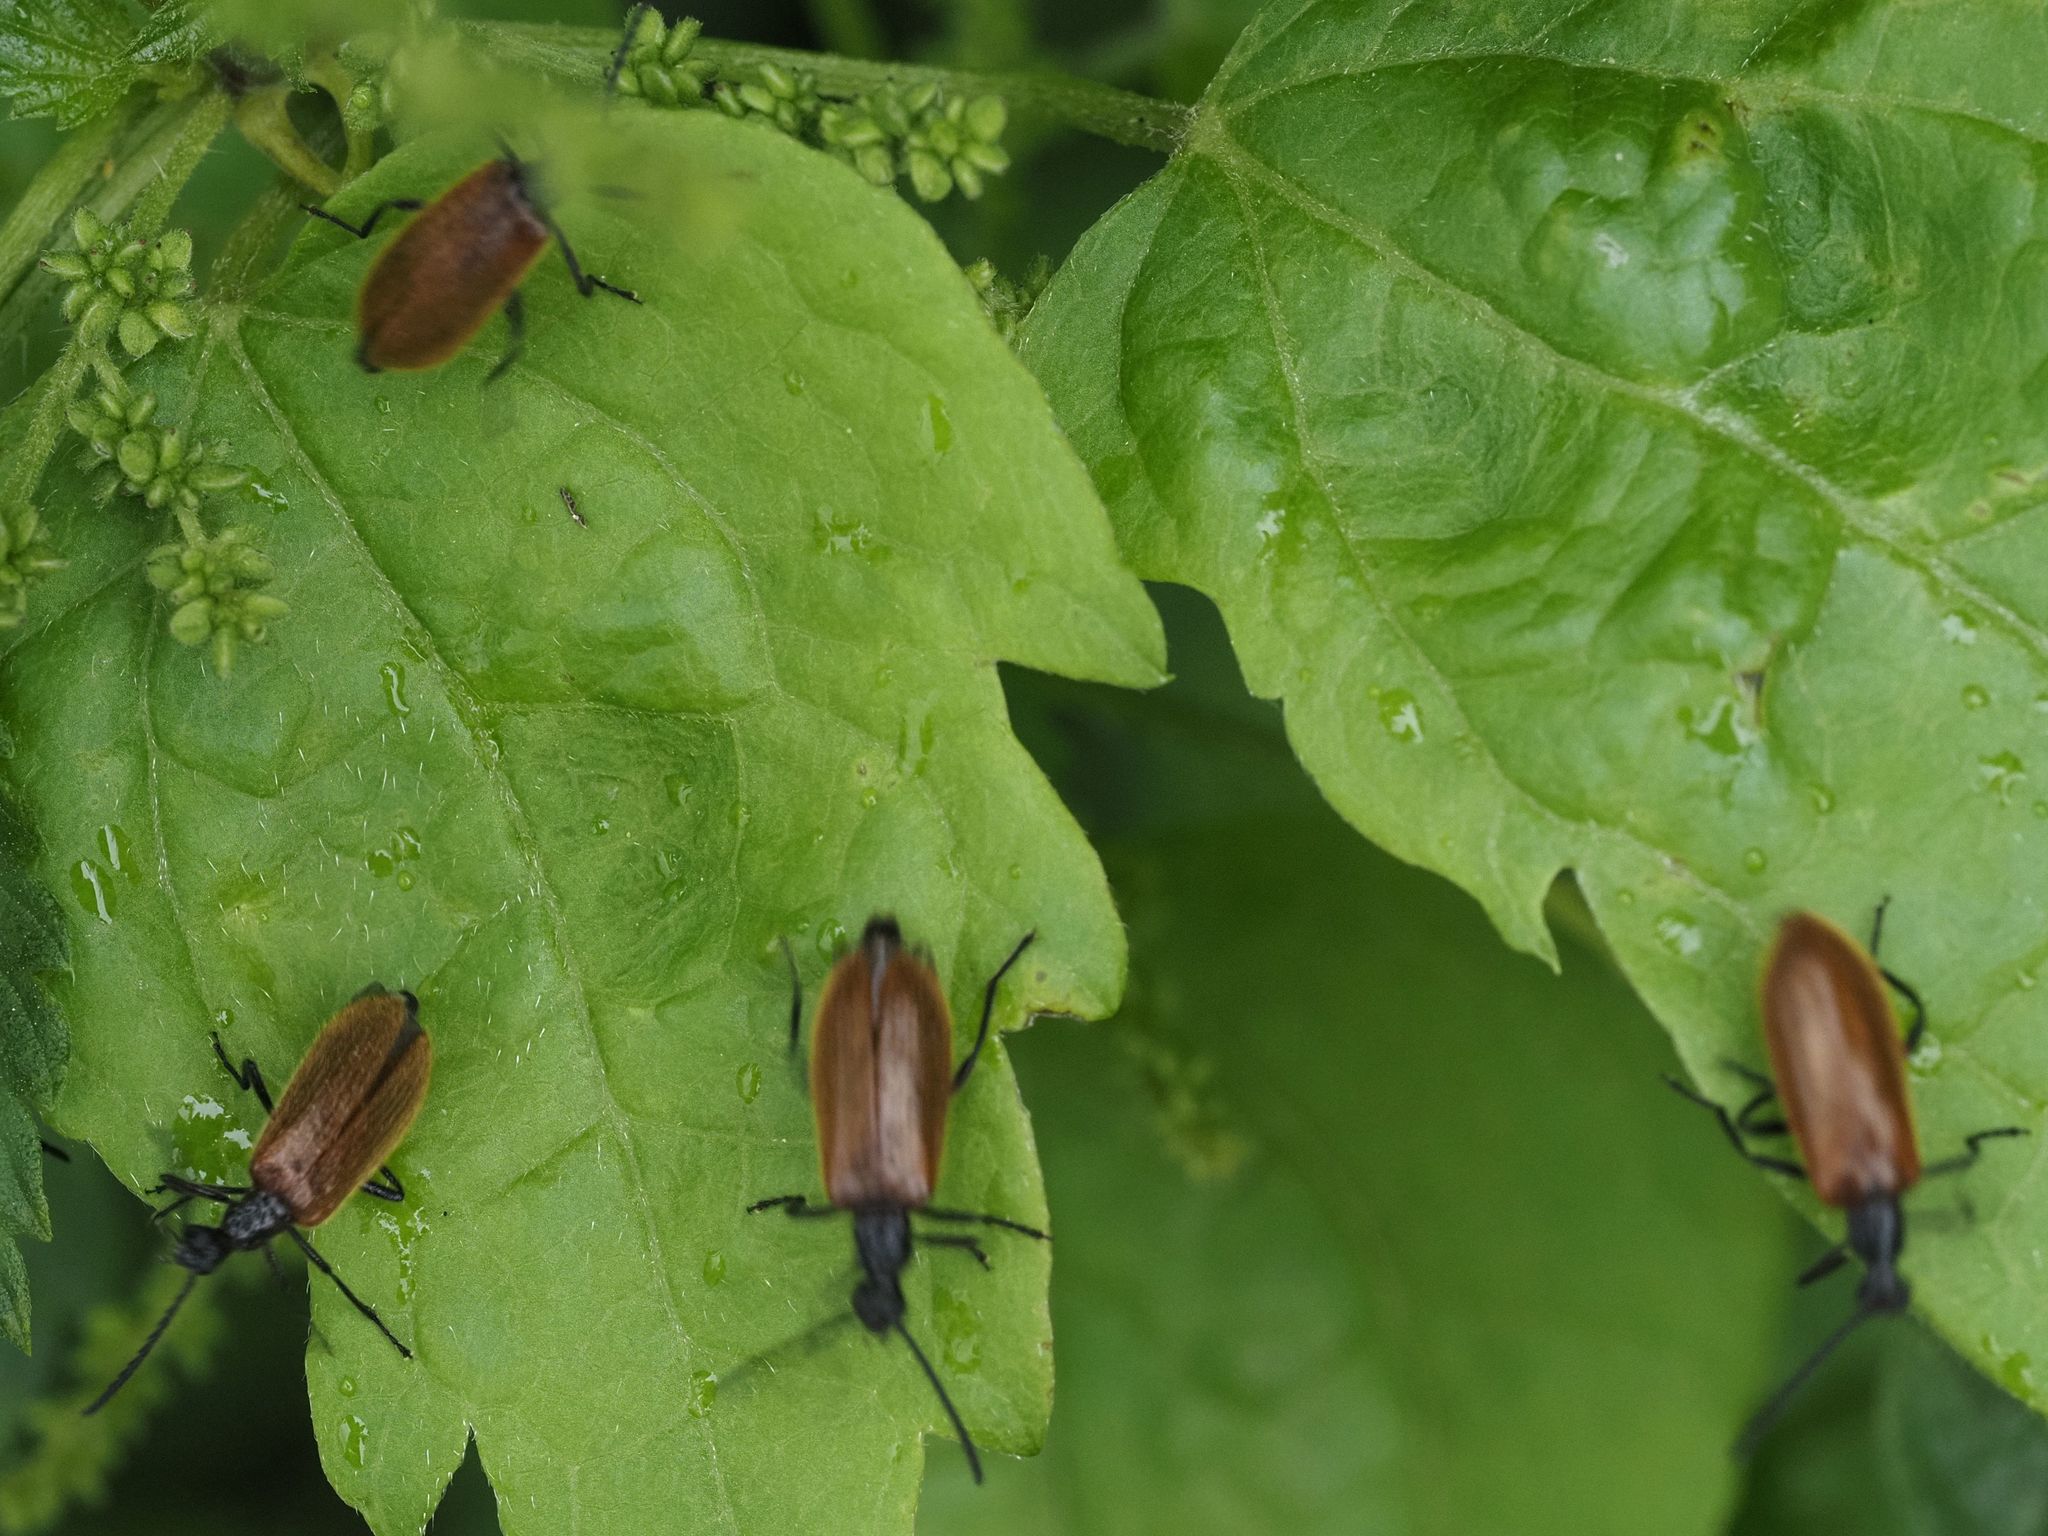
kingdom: Animalia
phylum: Arthropoda
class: Insecta
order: Coleoptera
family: Tenebrionidae
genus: Lagria
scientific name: Lagria hirta
